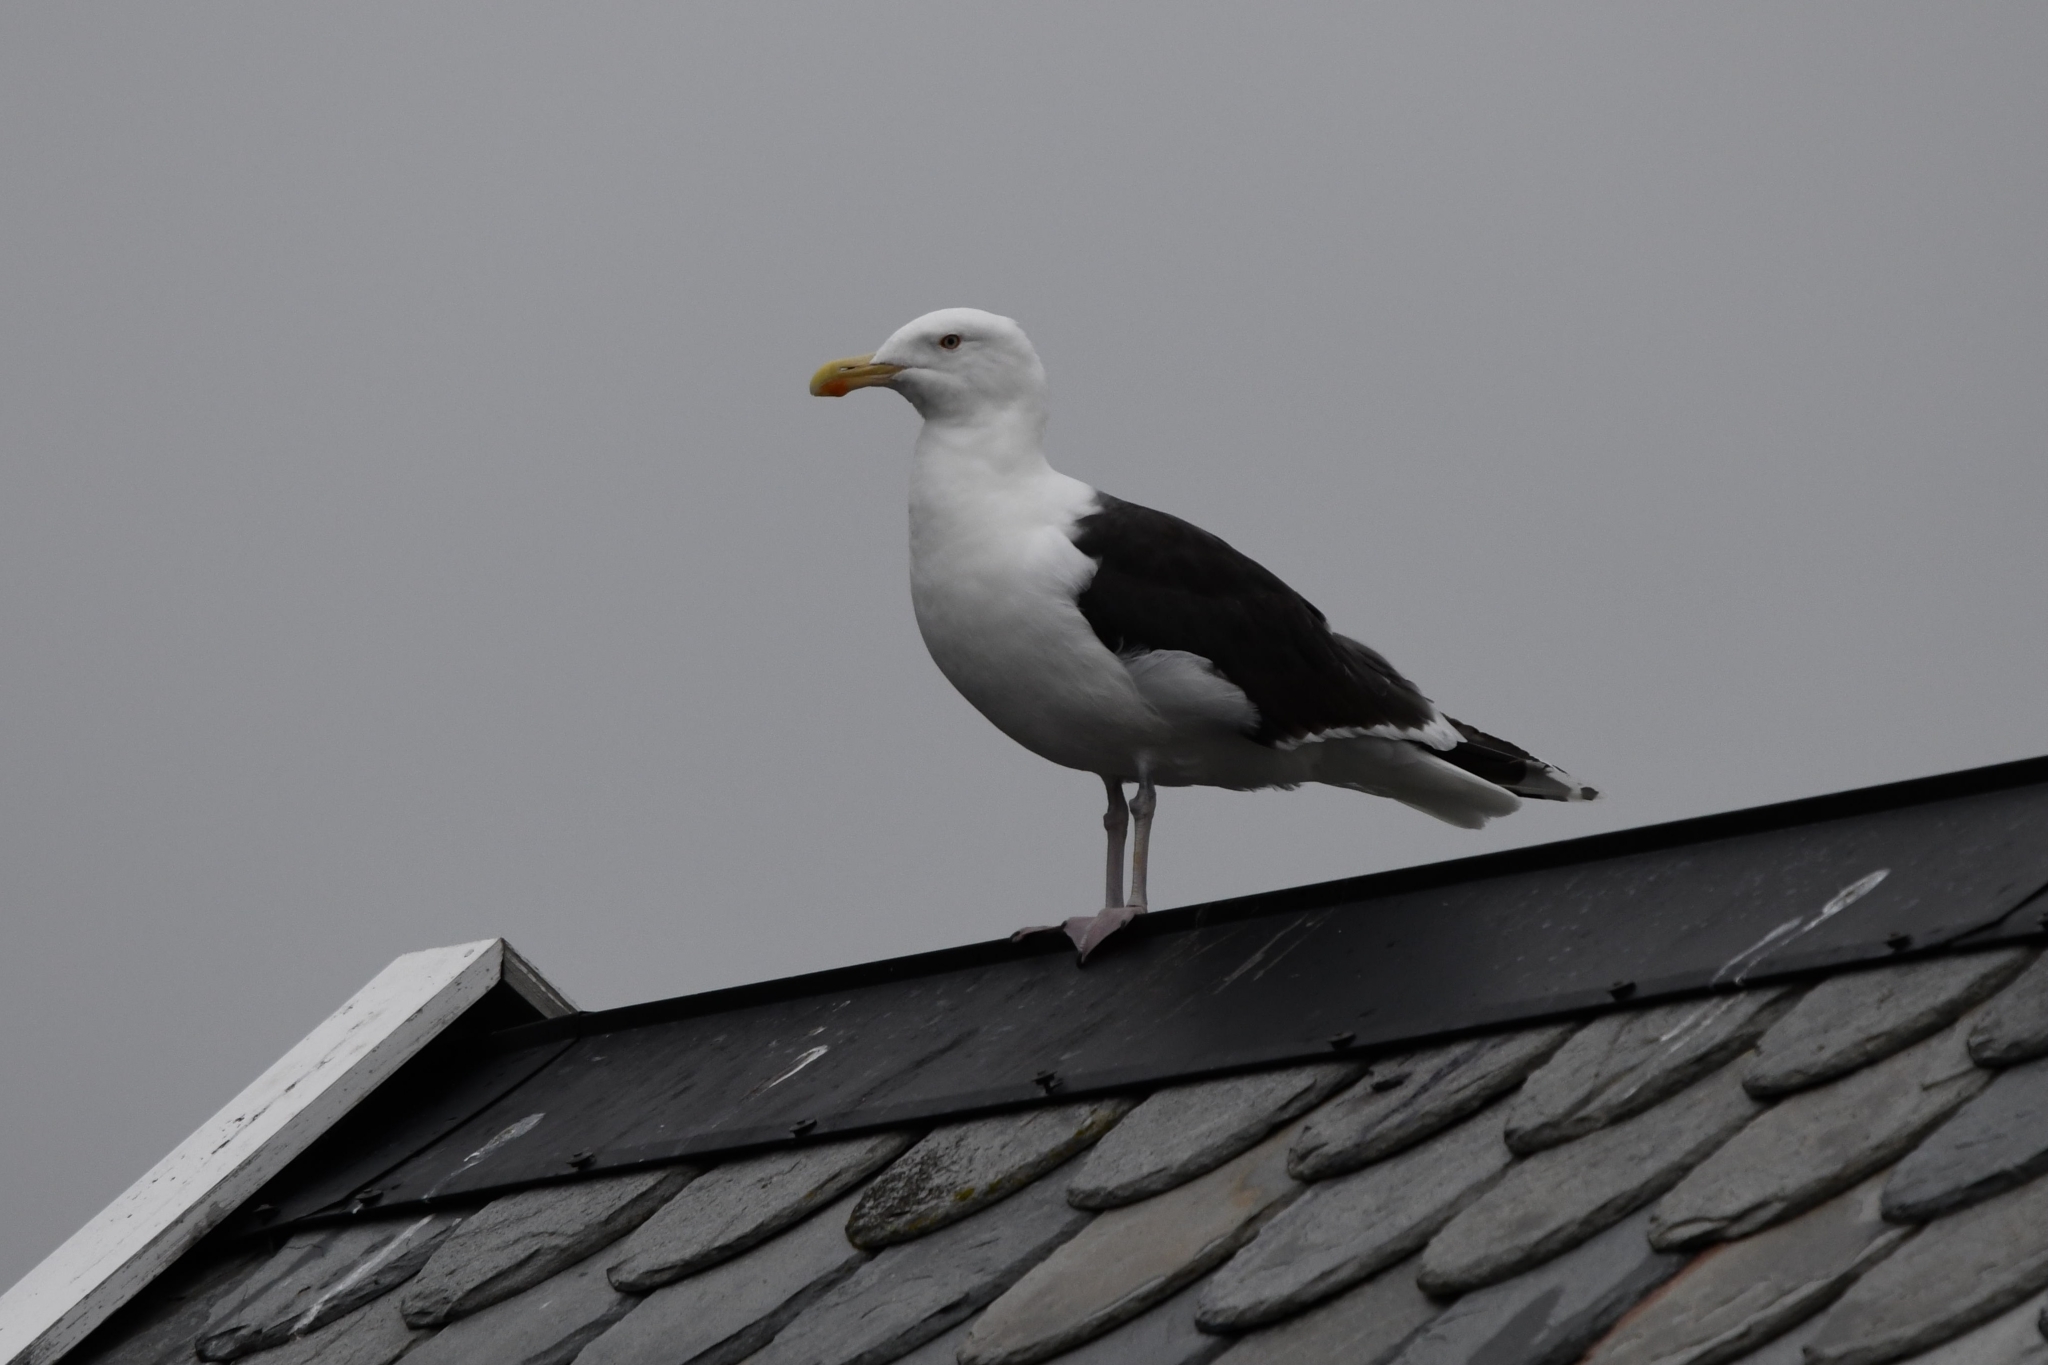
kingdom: Animalia
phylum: Chordata
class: Aves
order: Charadriiformes
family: Laridae
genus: Larus
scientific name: Larus marinus
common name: Great black-backed gull
